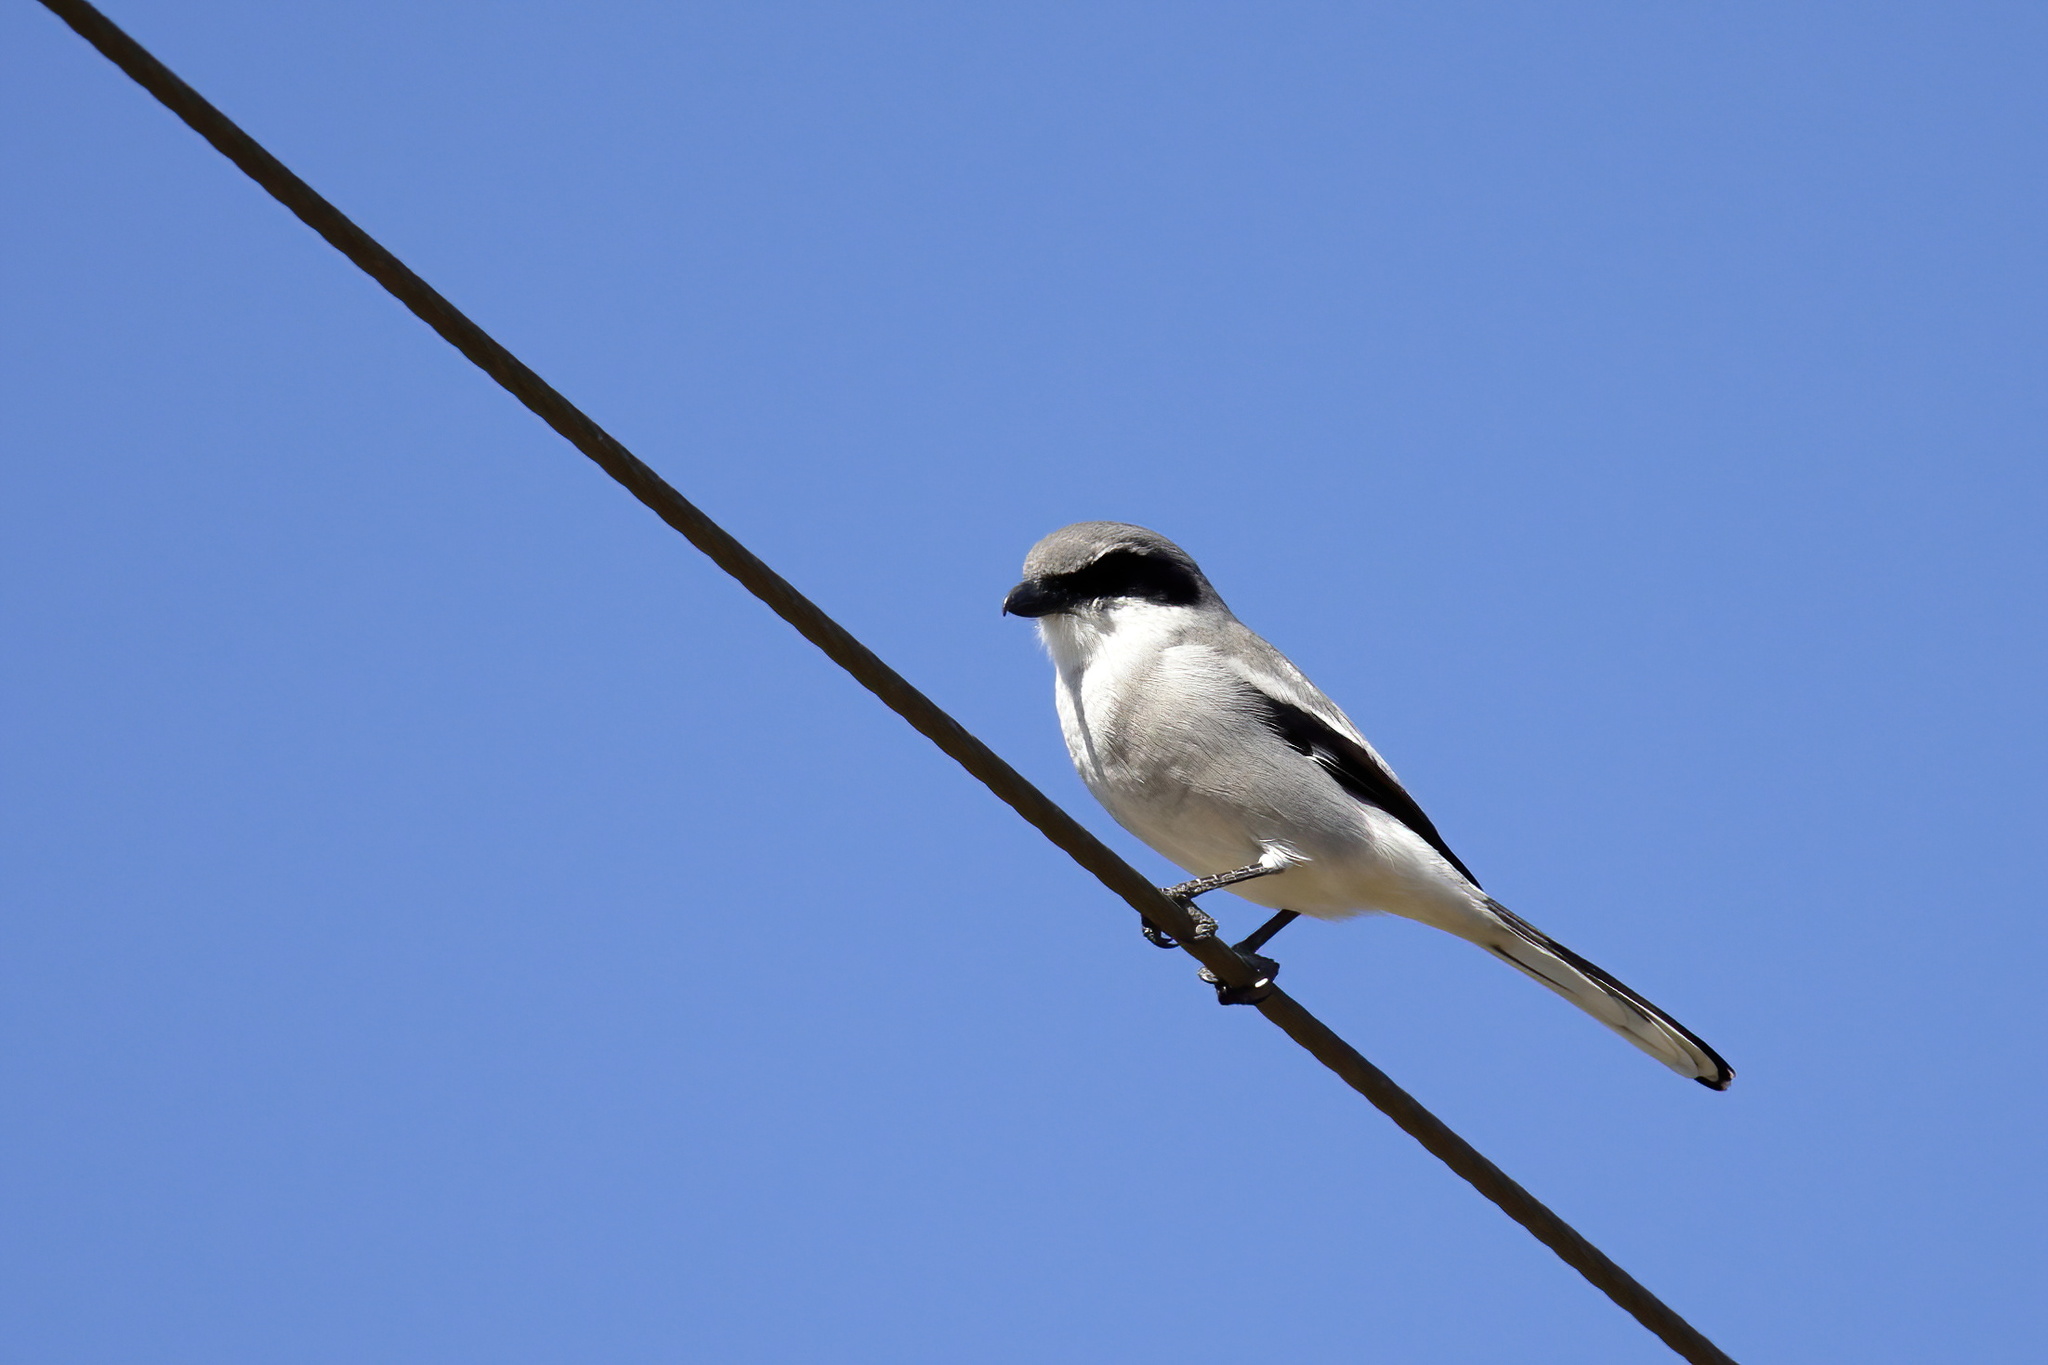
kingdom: Animalia
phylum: Chordata
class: Aves
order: Passeriformes
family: Laniidae
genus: Lanius
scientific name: Lanius ludovicianus
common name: Loggerhead shrike
